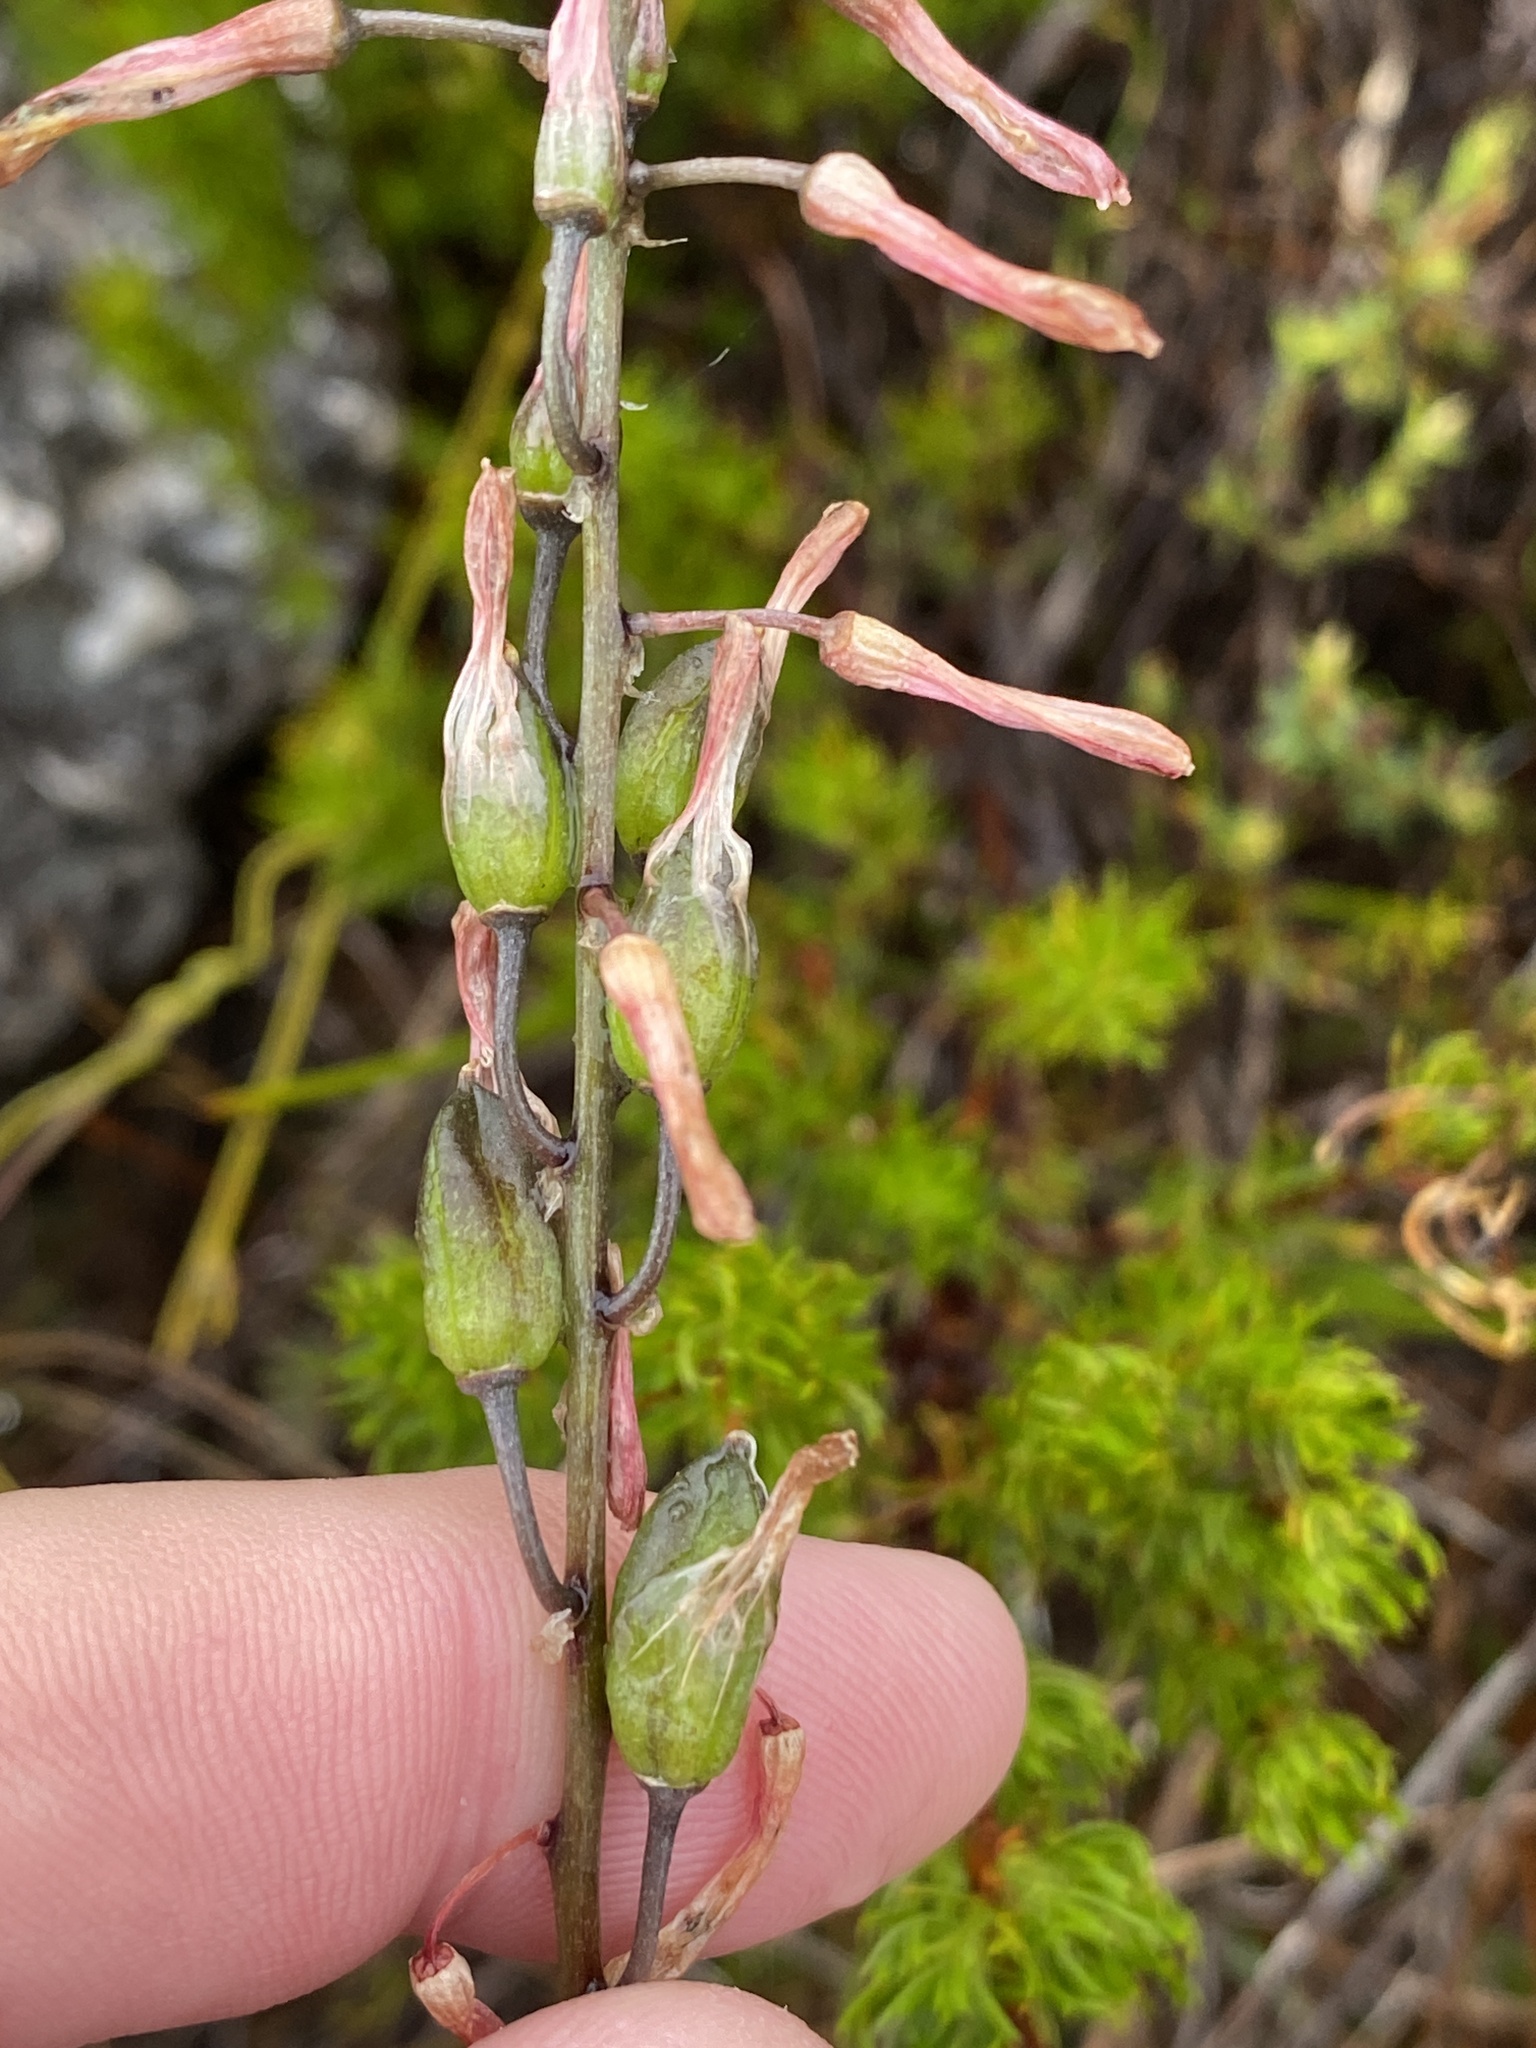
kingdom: Plantae
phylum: Tracheophyta
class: Liliopsida
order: Asparagales
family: Asparagaceae
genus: Drimia
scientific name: Drimia media
